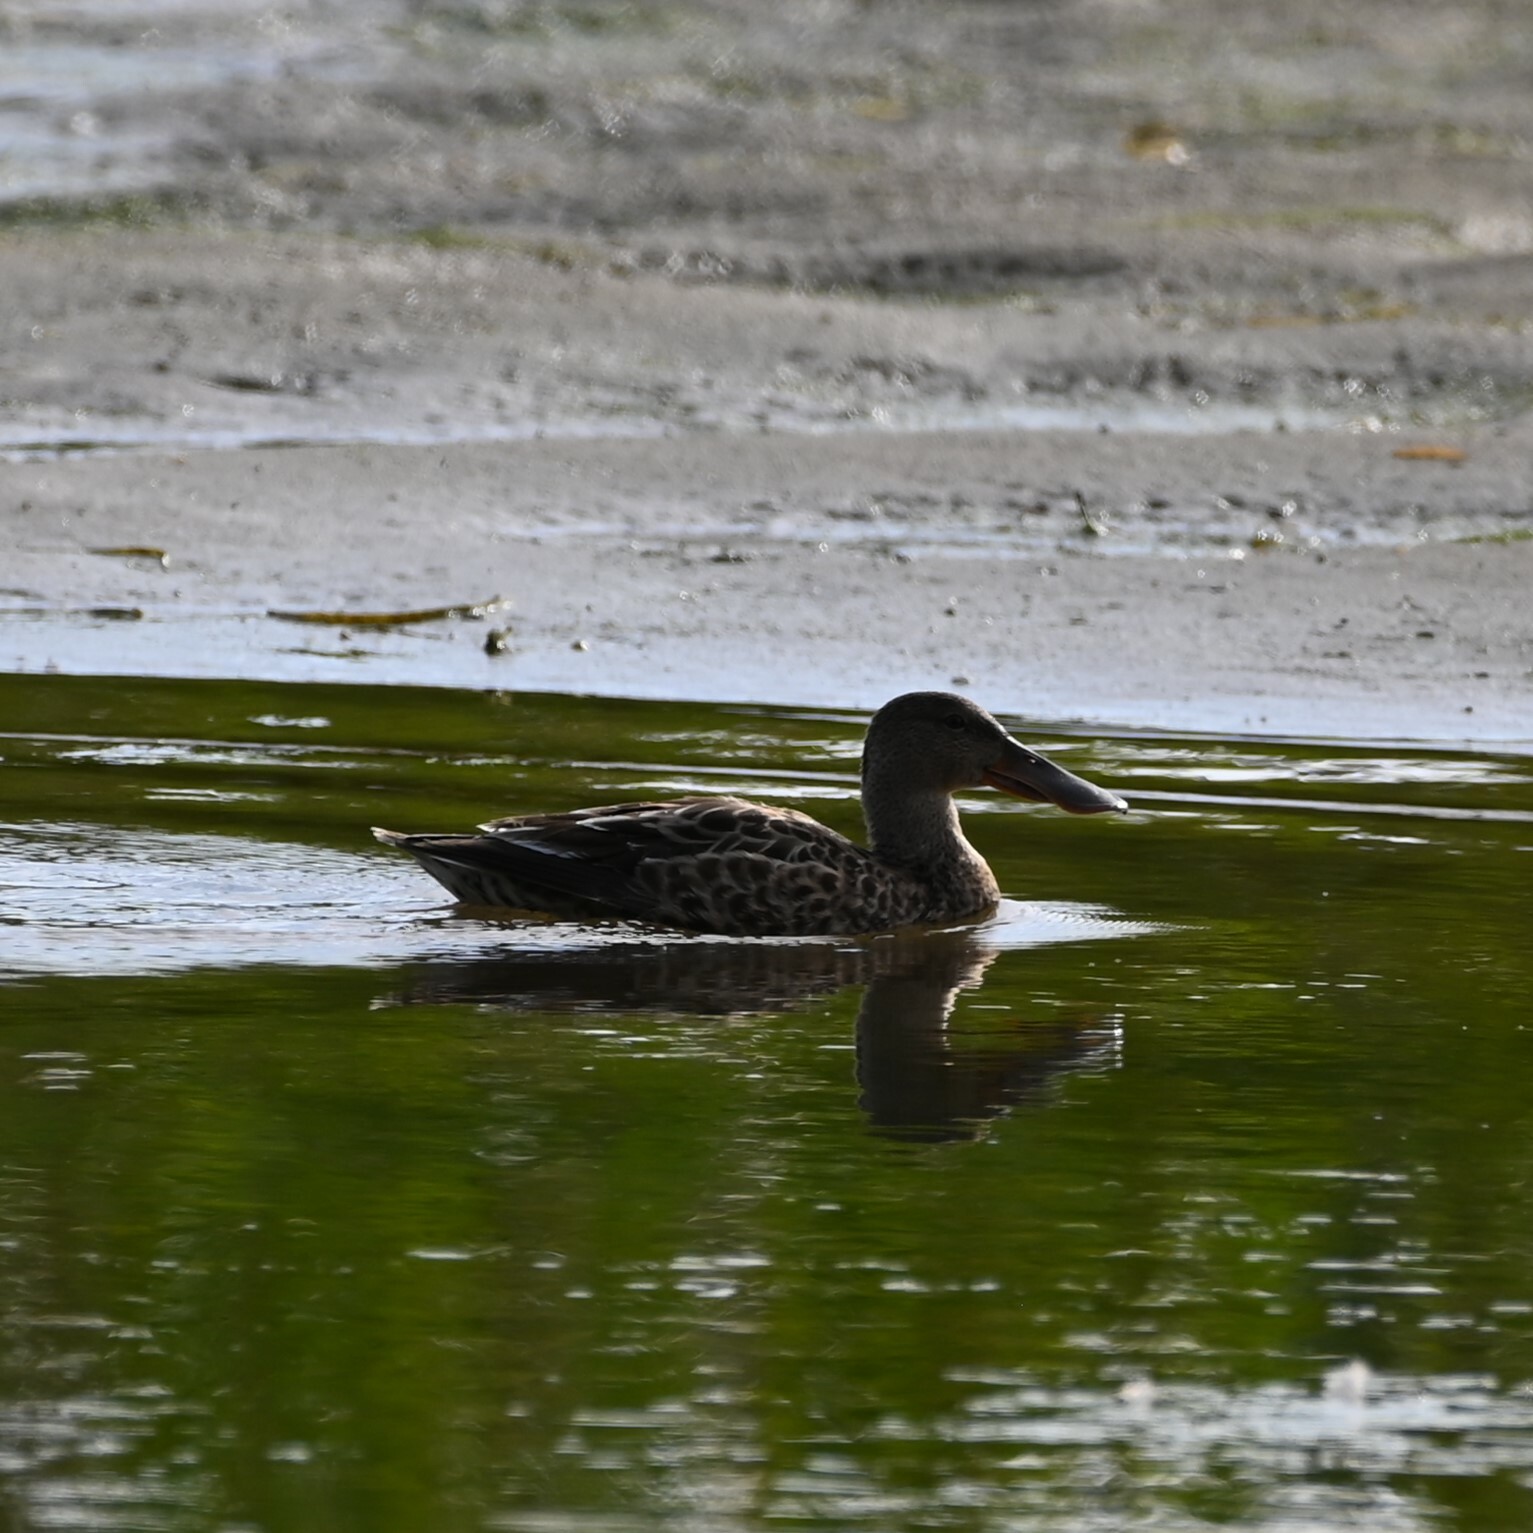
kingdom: Animalia
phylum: Chordata
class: Aves
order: Anseriformes
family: Anatidae
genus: Spatula
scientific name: Spatula clypeata
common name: Northern shoveler
